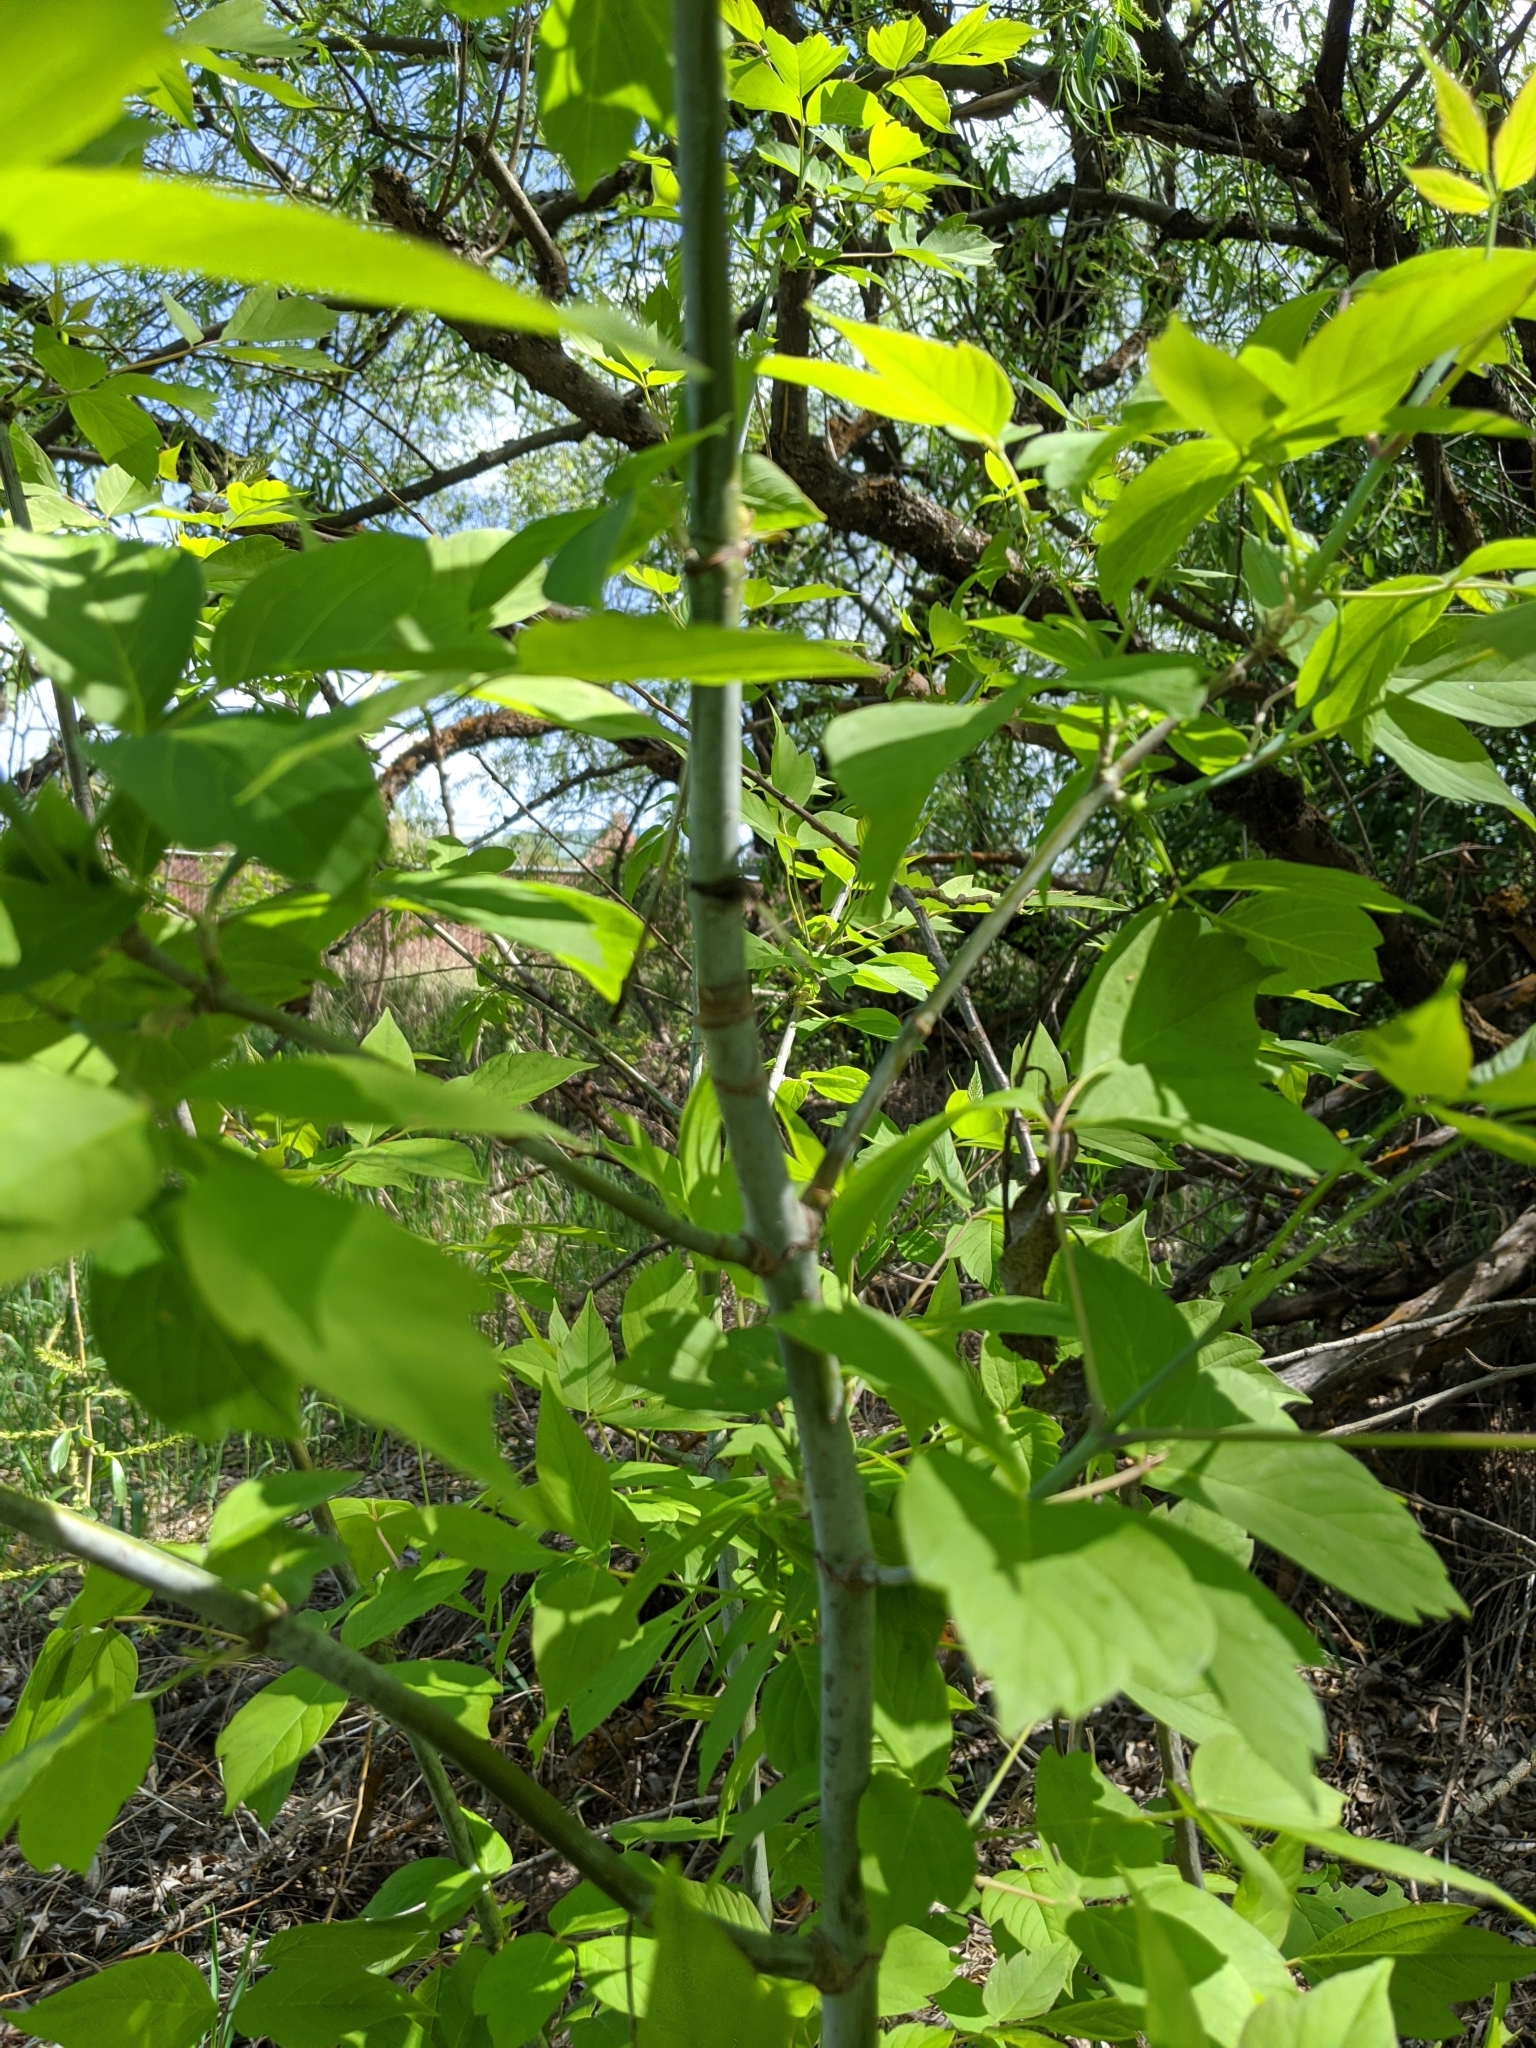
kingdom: Plantae
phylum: Tracheophyta
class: Magnoliopsida
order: Sapindales
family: Sapindaceae
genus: Acer
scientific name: Acer negundo
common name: Ashleaf maple
